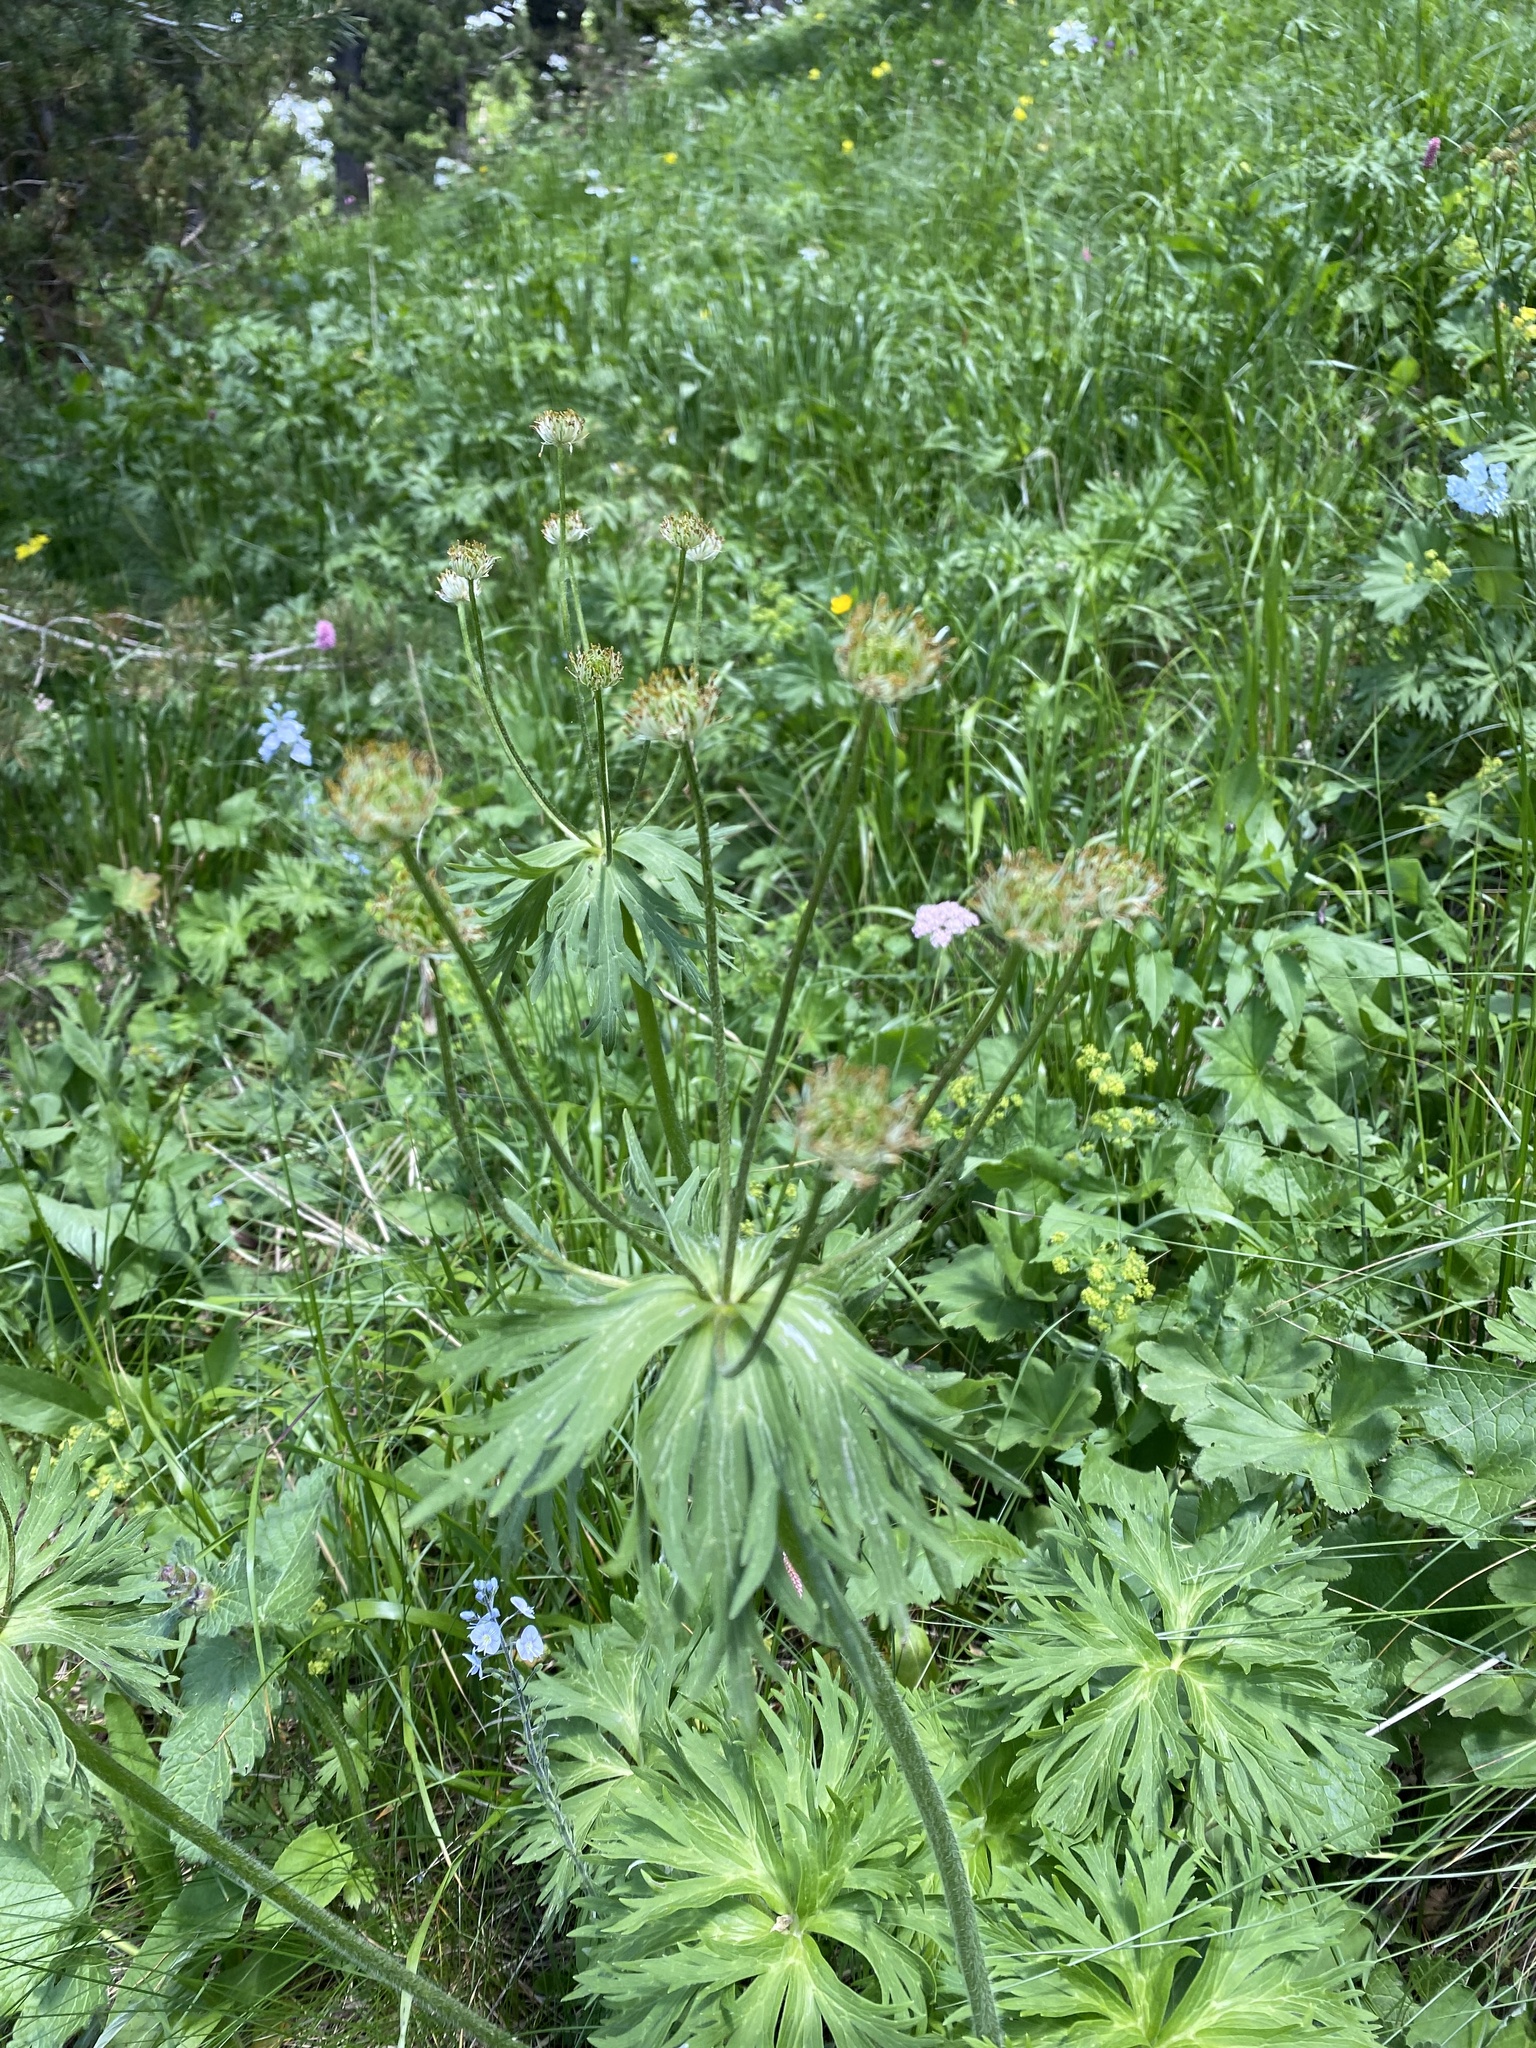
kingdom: Plantae
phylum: Tracheophyta
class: Magnoliopsida
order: Ranunculales
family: Ranunculaceae
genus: Anemonastrum
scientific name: Anemonastrum narcissiflorum
